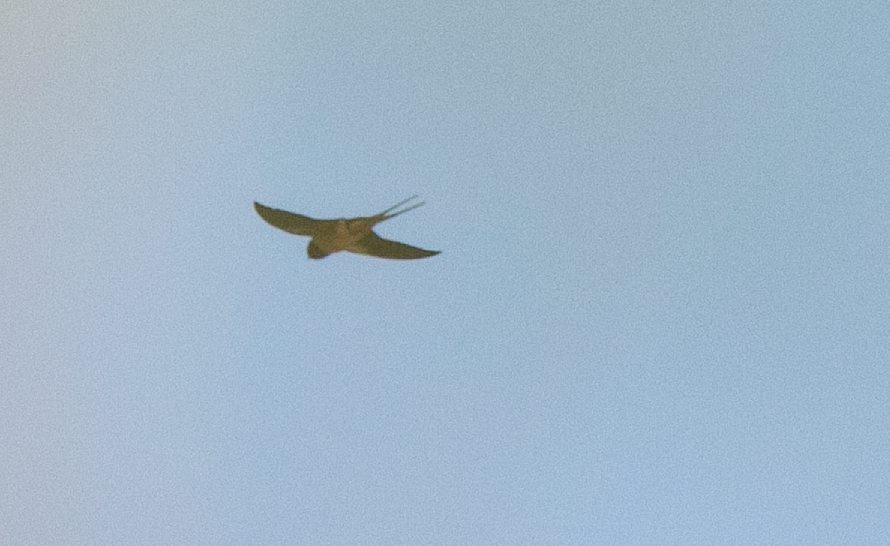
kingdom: Animalia
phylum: Chordata
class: Aves
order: Passeriformes
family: Hirundinidae
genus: Hirundo
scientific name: Hirundo rustica
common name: Barn swallow
